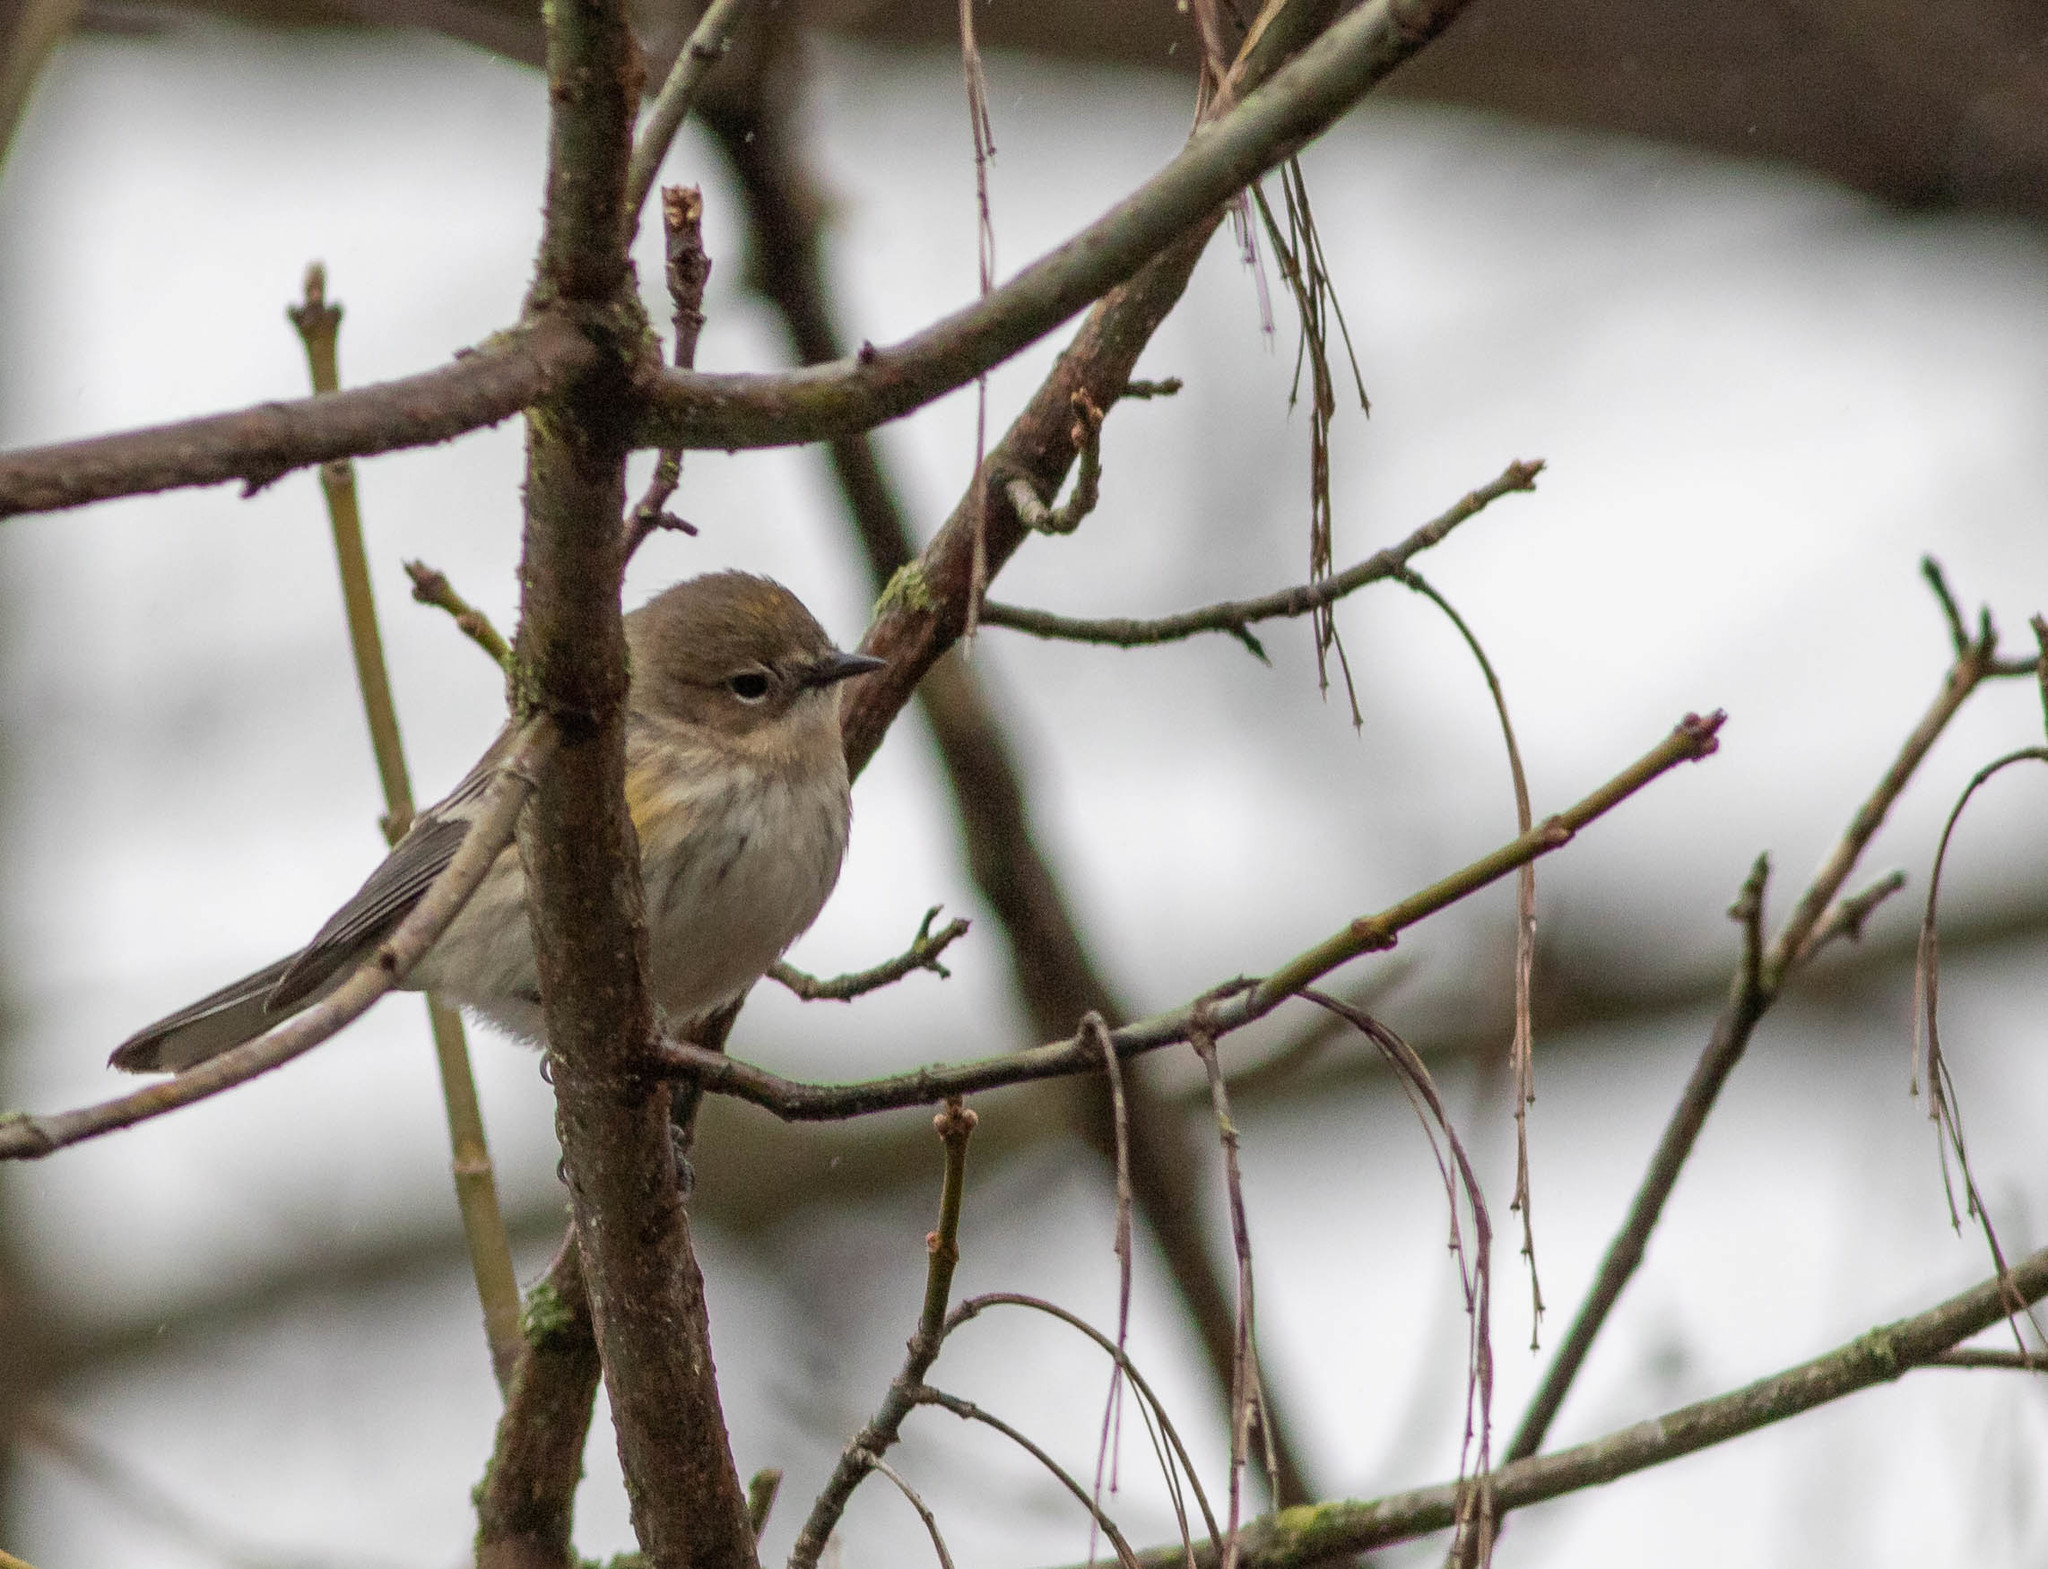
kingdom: Animalia
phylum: Chordata
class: Aves
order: Passeriformes
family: Parulidae
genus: Setophaga
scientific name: Setophaga coronata
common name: Myrtle warbler
